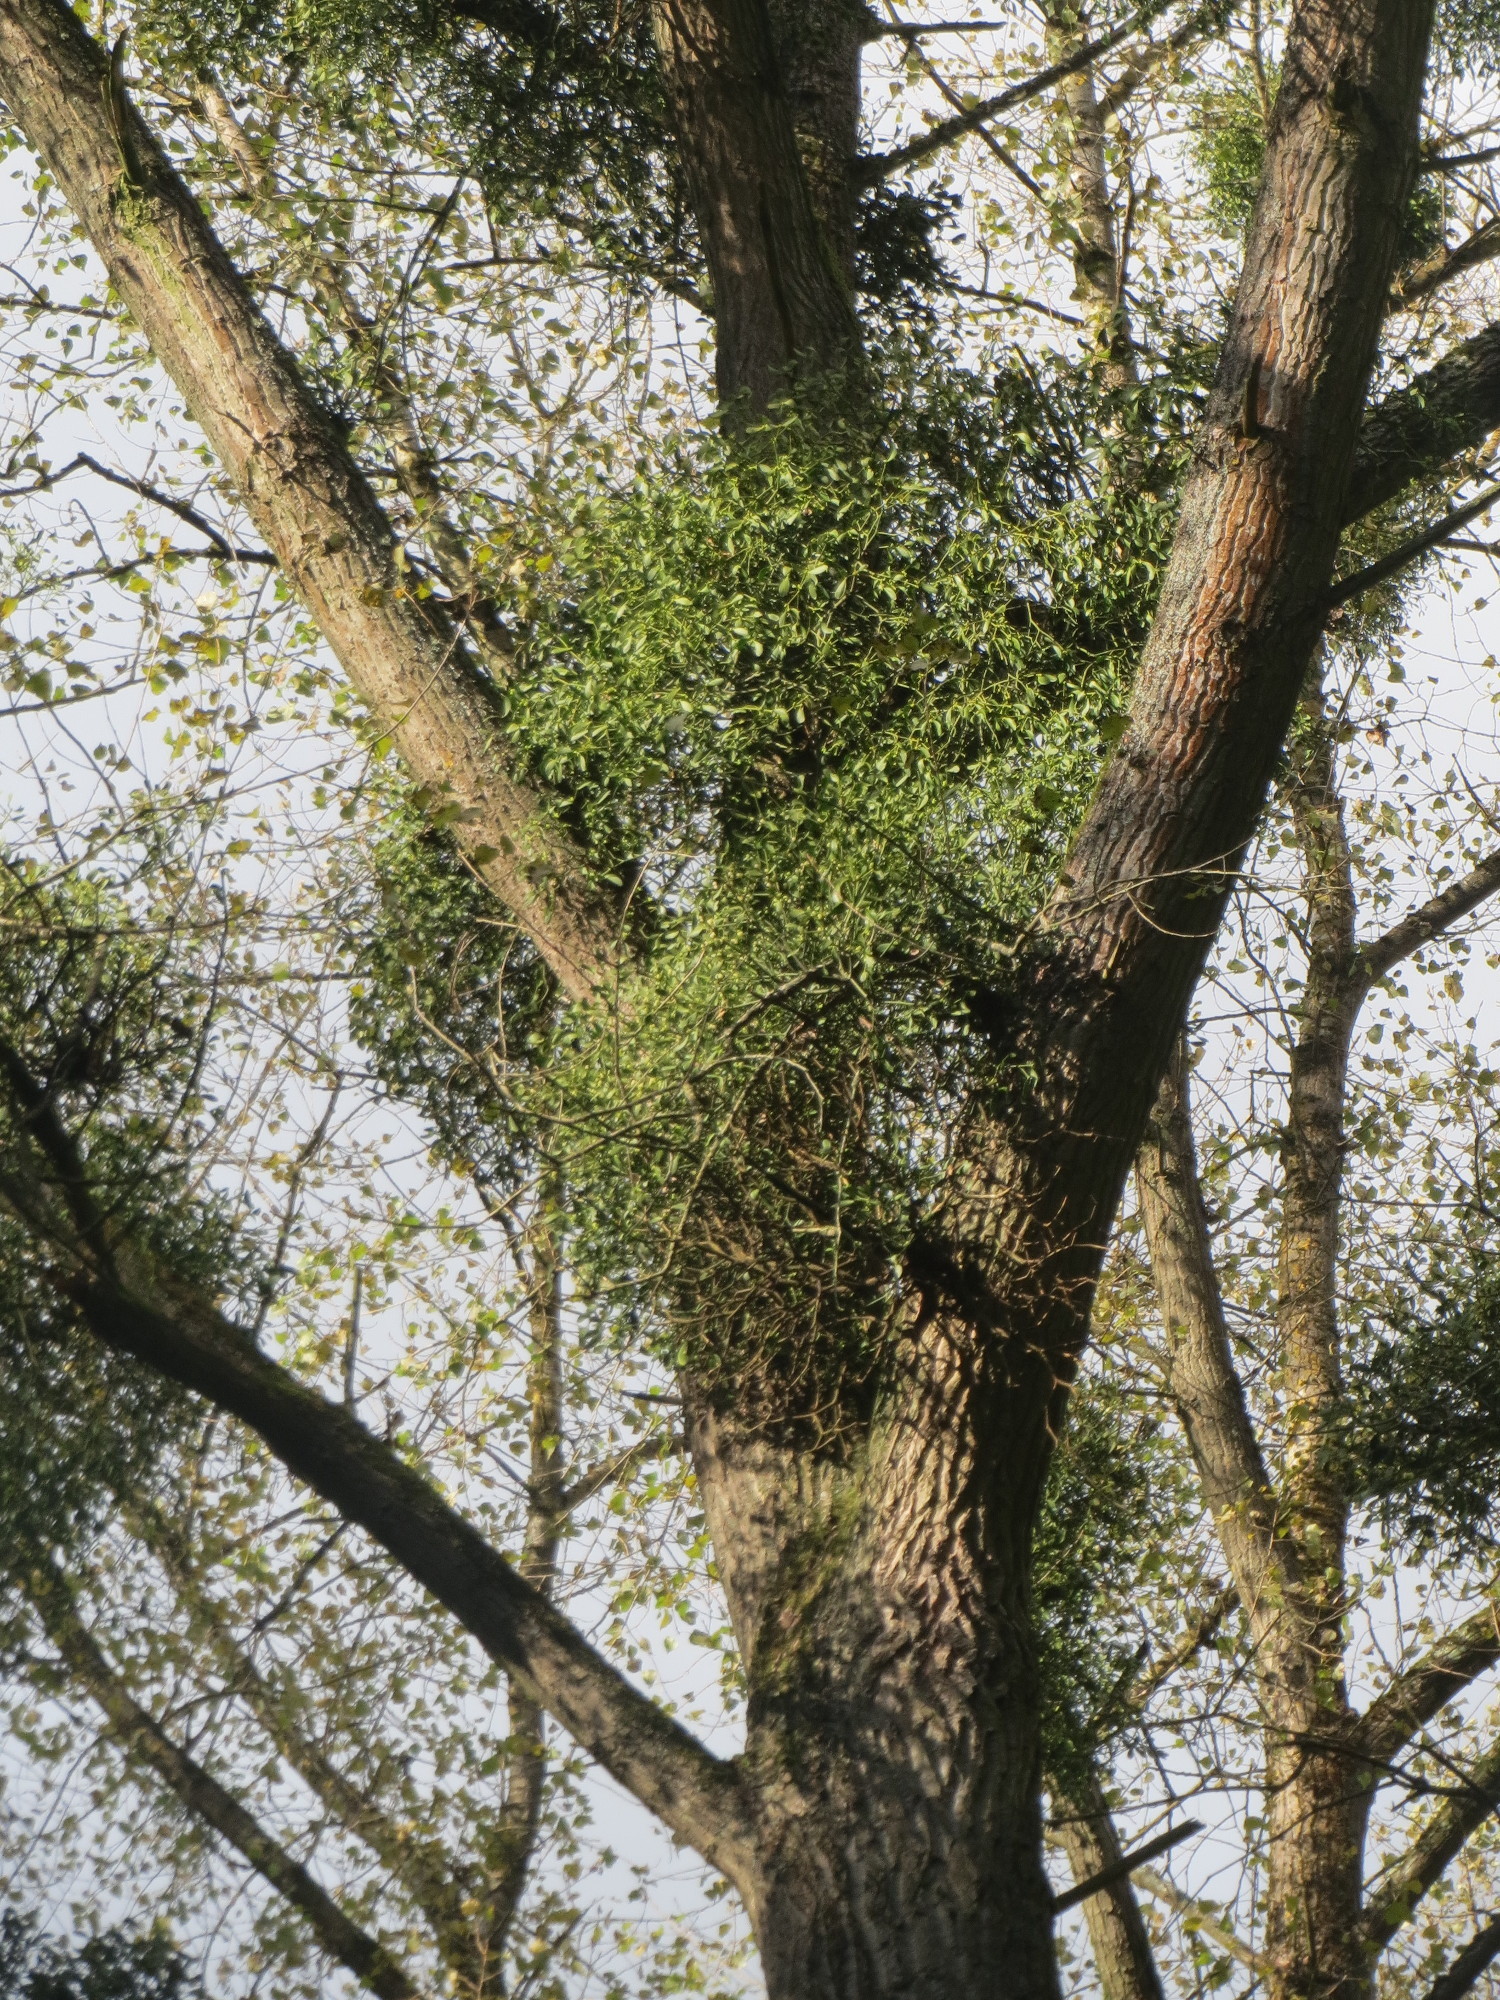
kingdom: Plantae
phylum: Tracheophyta
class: Magnoliopsida
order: Santalales
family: Viscaceae
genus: Viscum
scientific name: Viscum album
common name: Mistletoe
